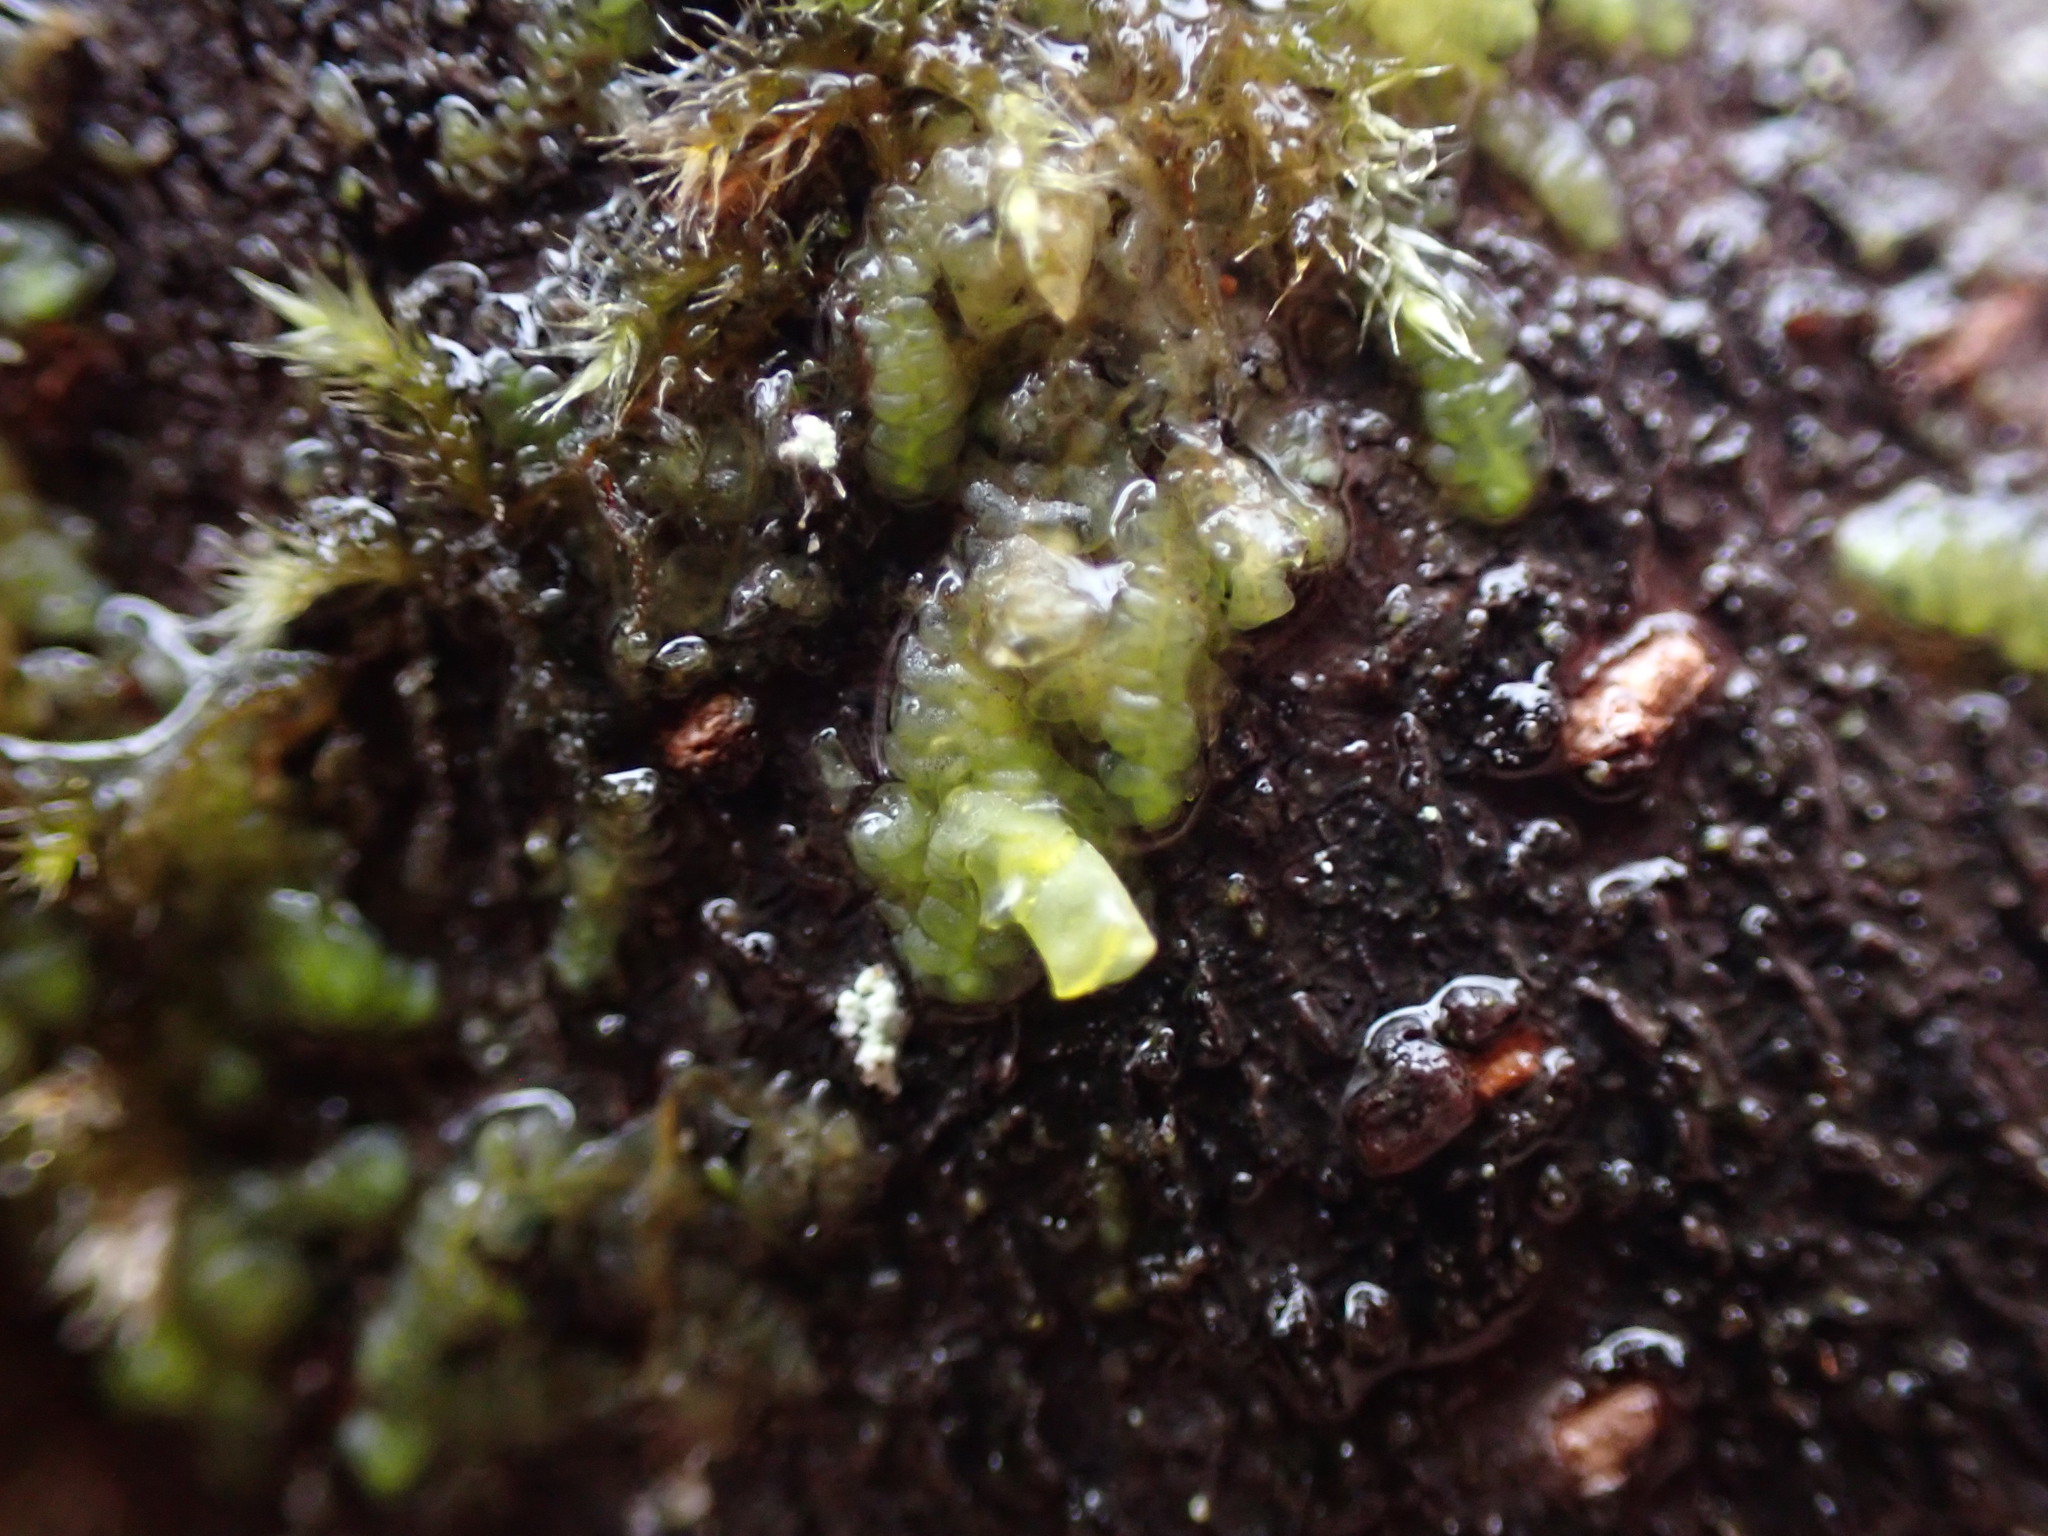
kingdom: Plantae
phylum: Marchantiophyta
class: Jungermanniopsida
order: Porellales
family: Radulaceae
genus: Radula
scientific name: Radula complanata
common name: Flat-leaved scalewort
